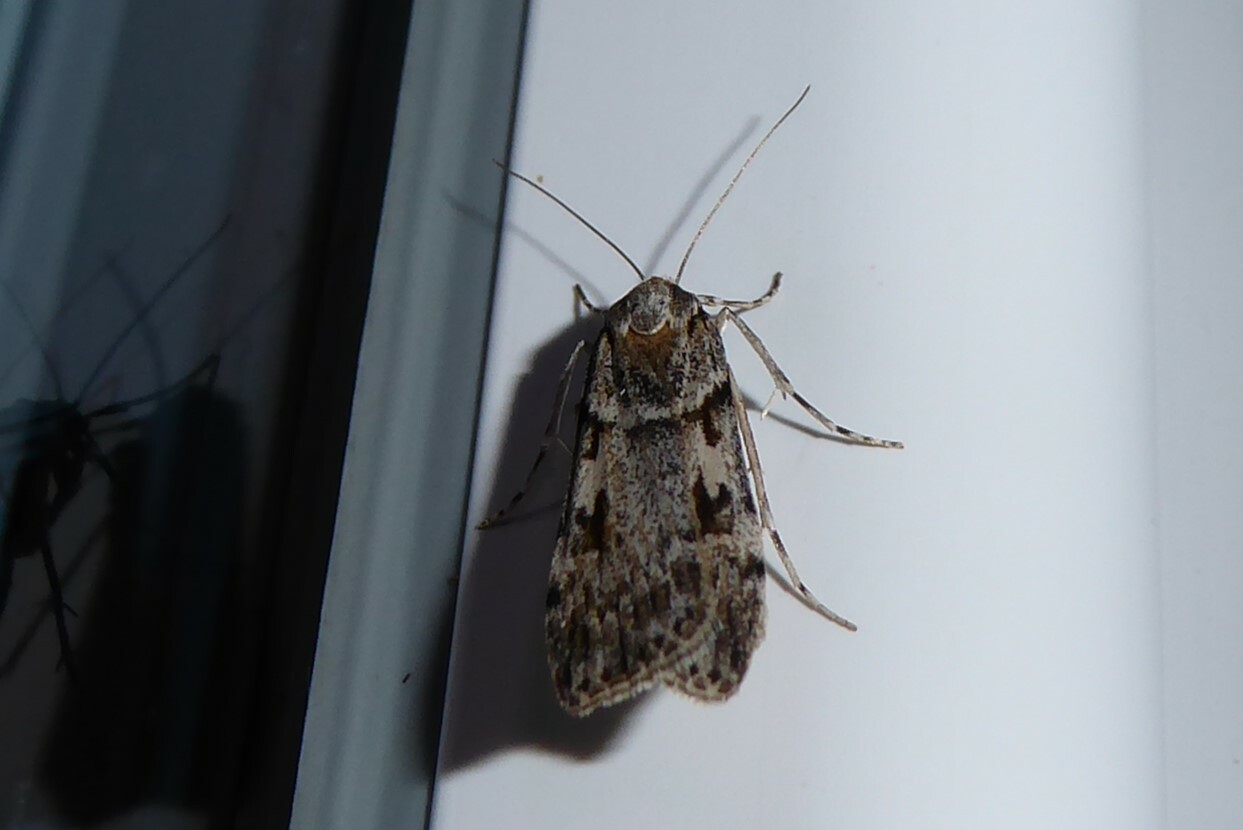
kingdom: Animalia
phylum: Arthropoda
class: Insecta
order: Lepidoptera
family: Crambidae
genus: Scoparia
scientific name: Scoparia halopis
